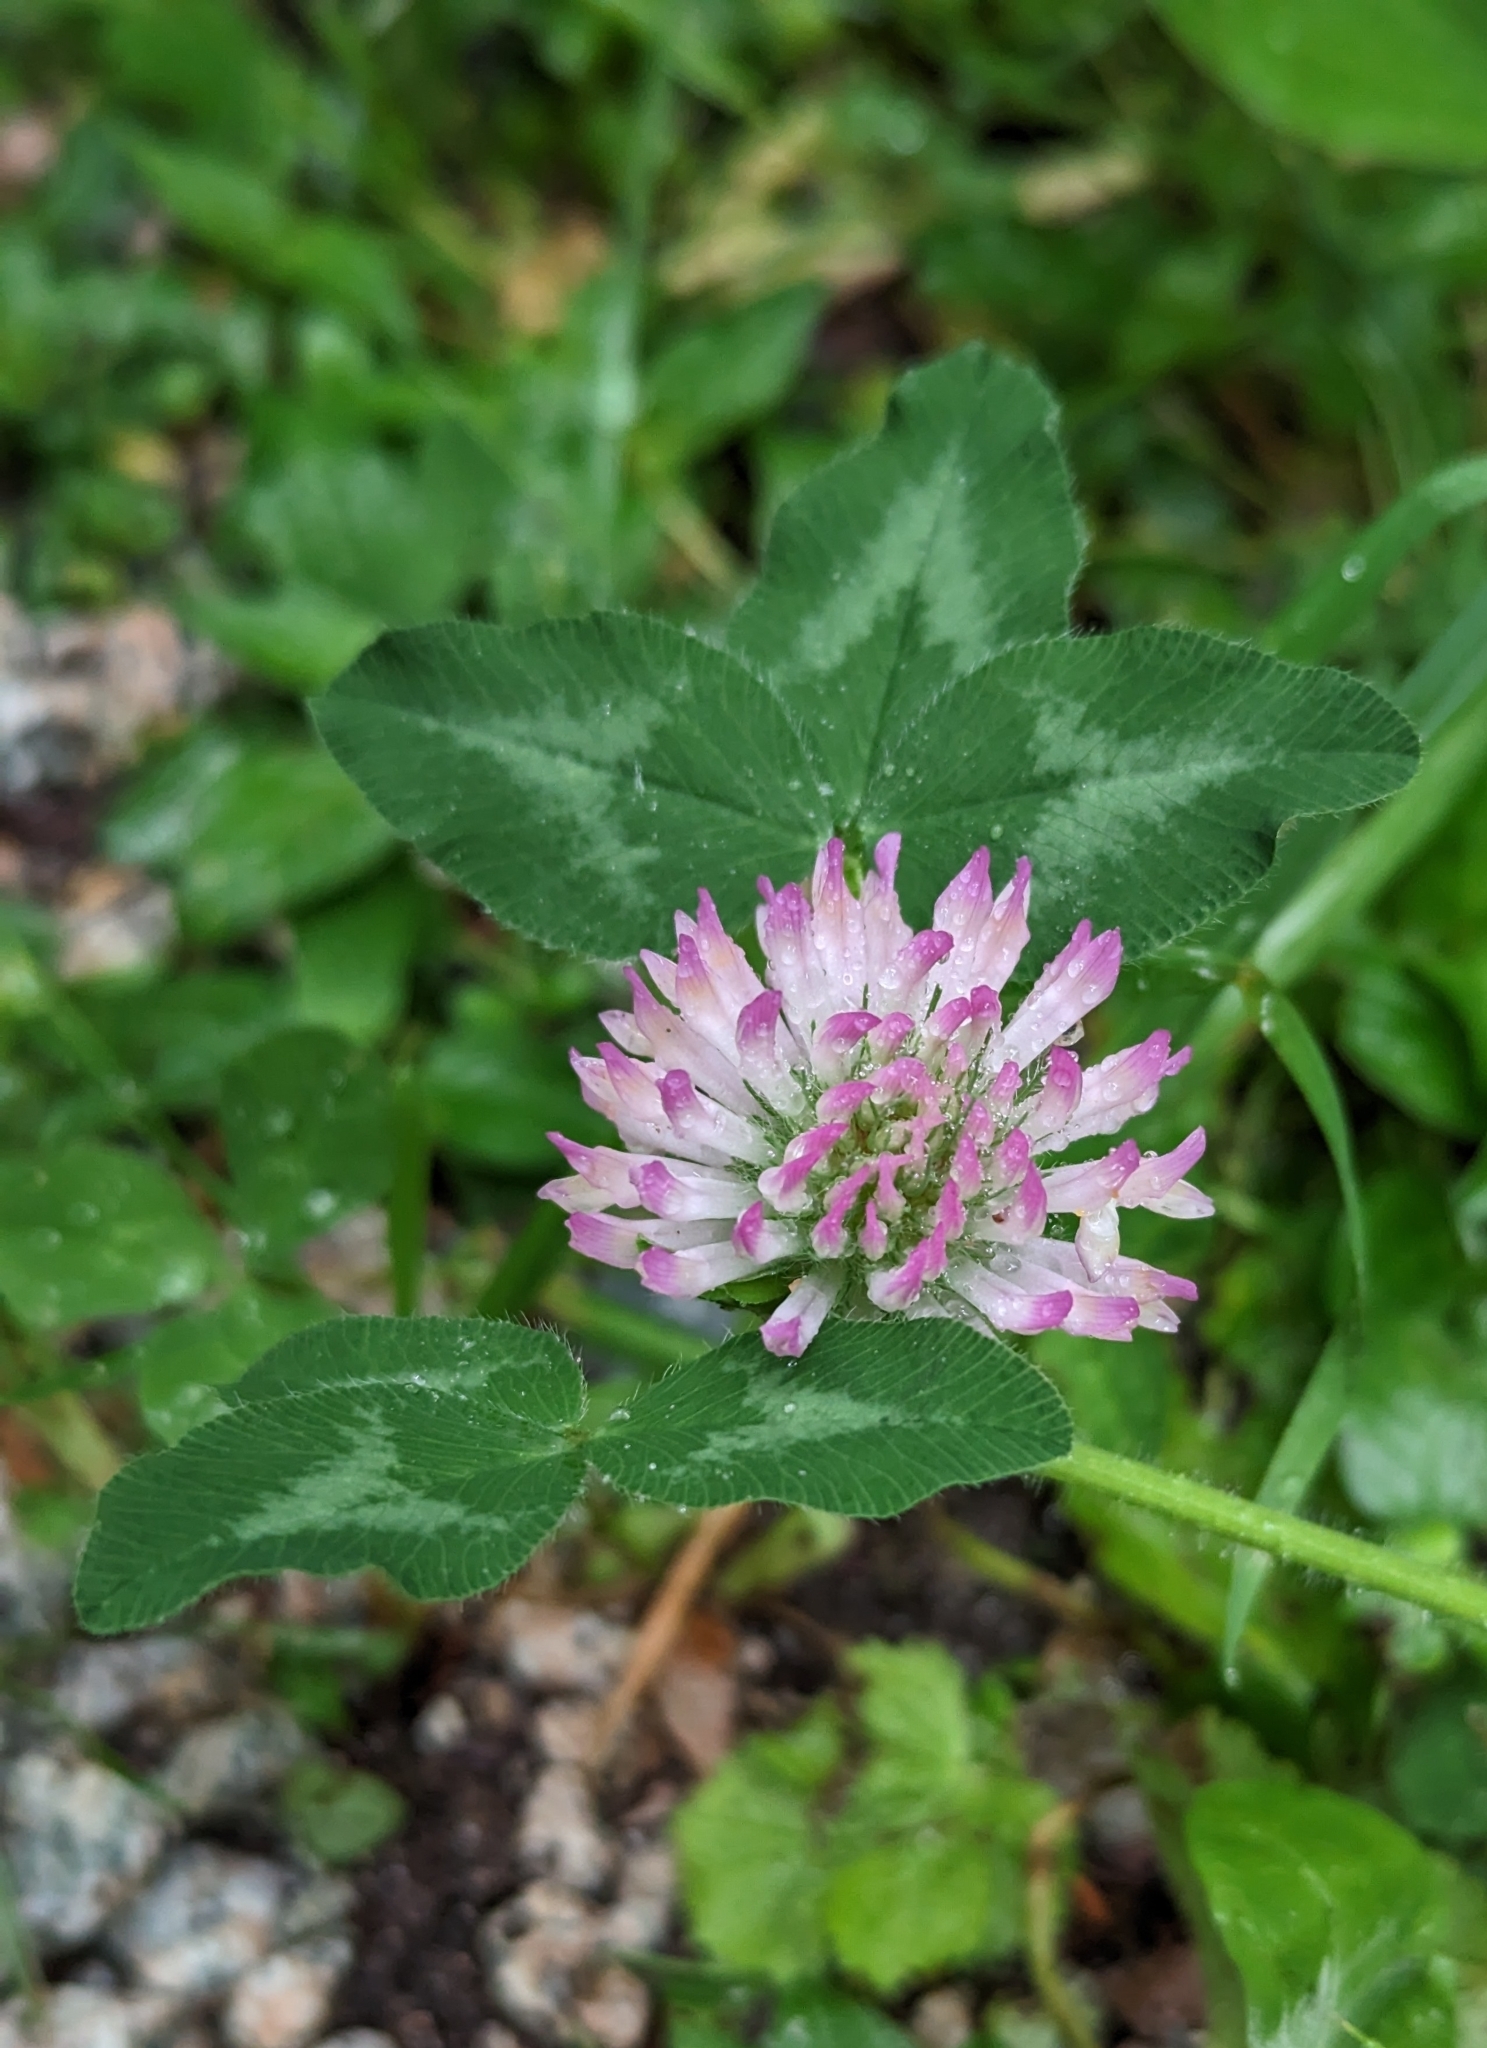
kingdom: Plantae
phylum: Tracheophyta
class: Magnoliopsida
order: Fabales
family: Fabaceae
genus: Trifolium
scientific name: Trifolium pratense
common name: Red clover
